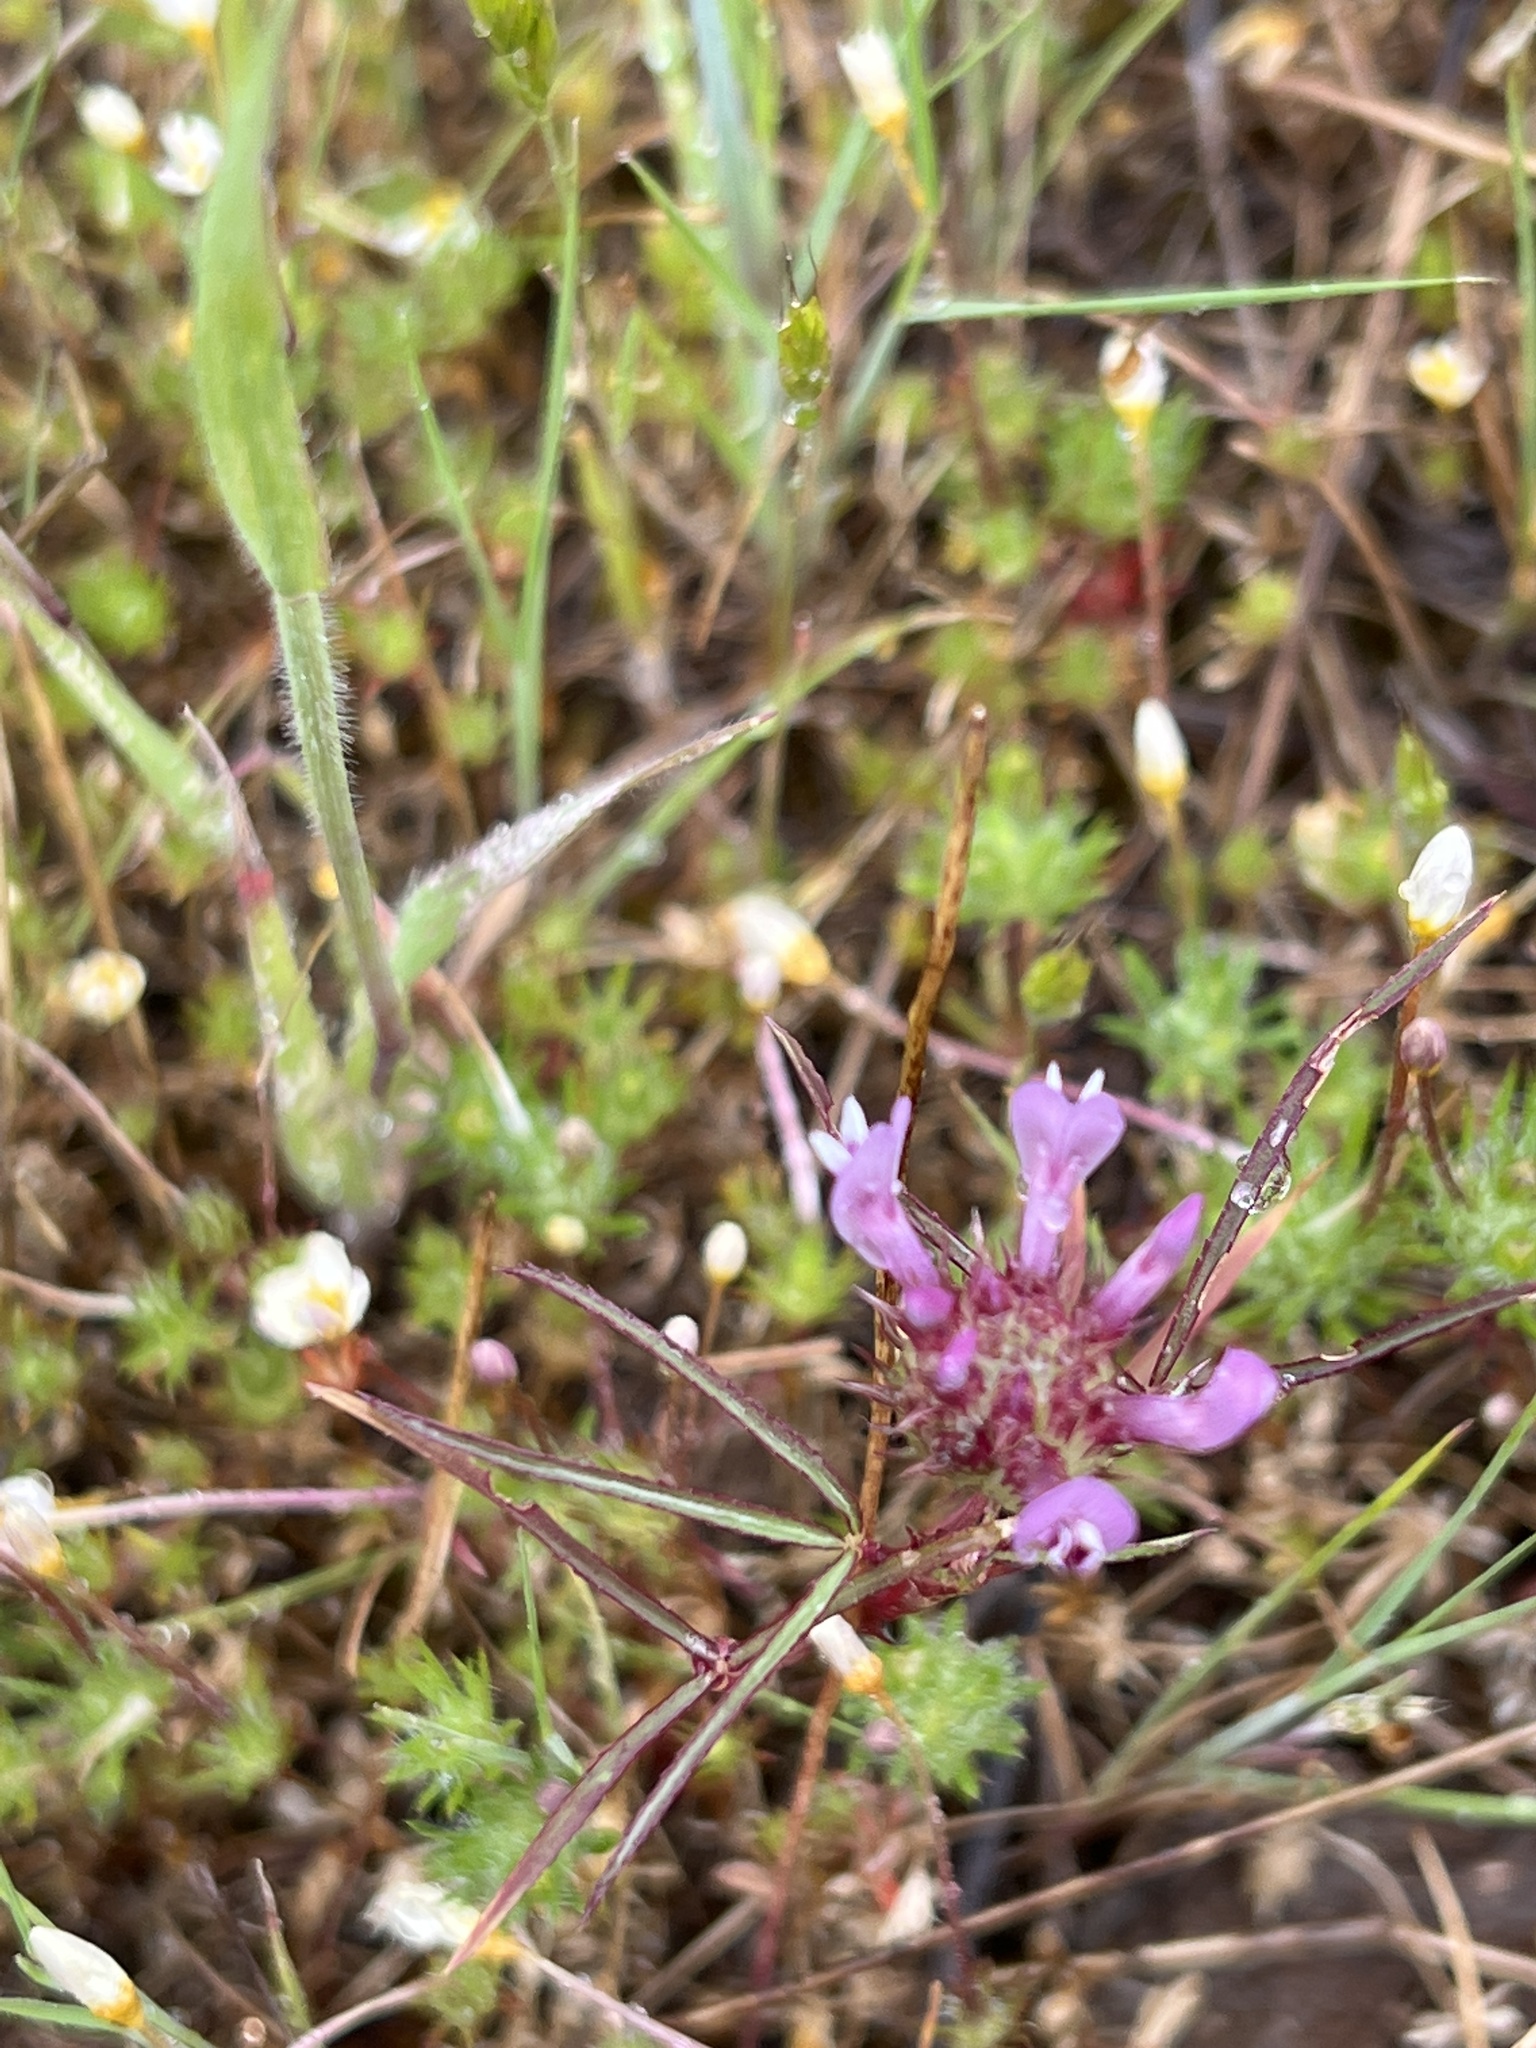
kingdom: Plantae
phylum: Tracheophyta
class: Magnoliopsida
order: Fabales
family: Fabaceae
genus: Trifolium
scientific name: Trifolium willdenovii
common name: Tomcat clover
